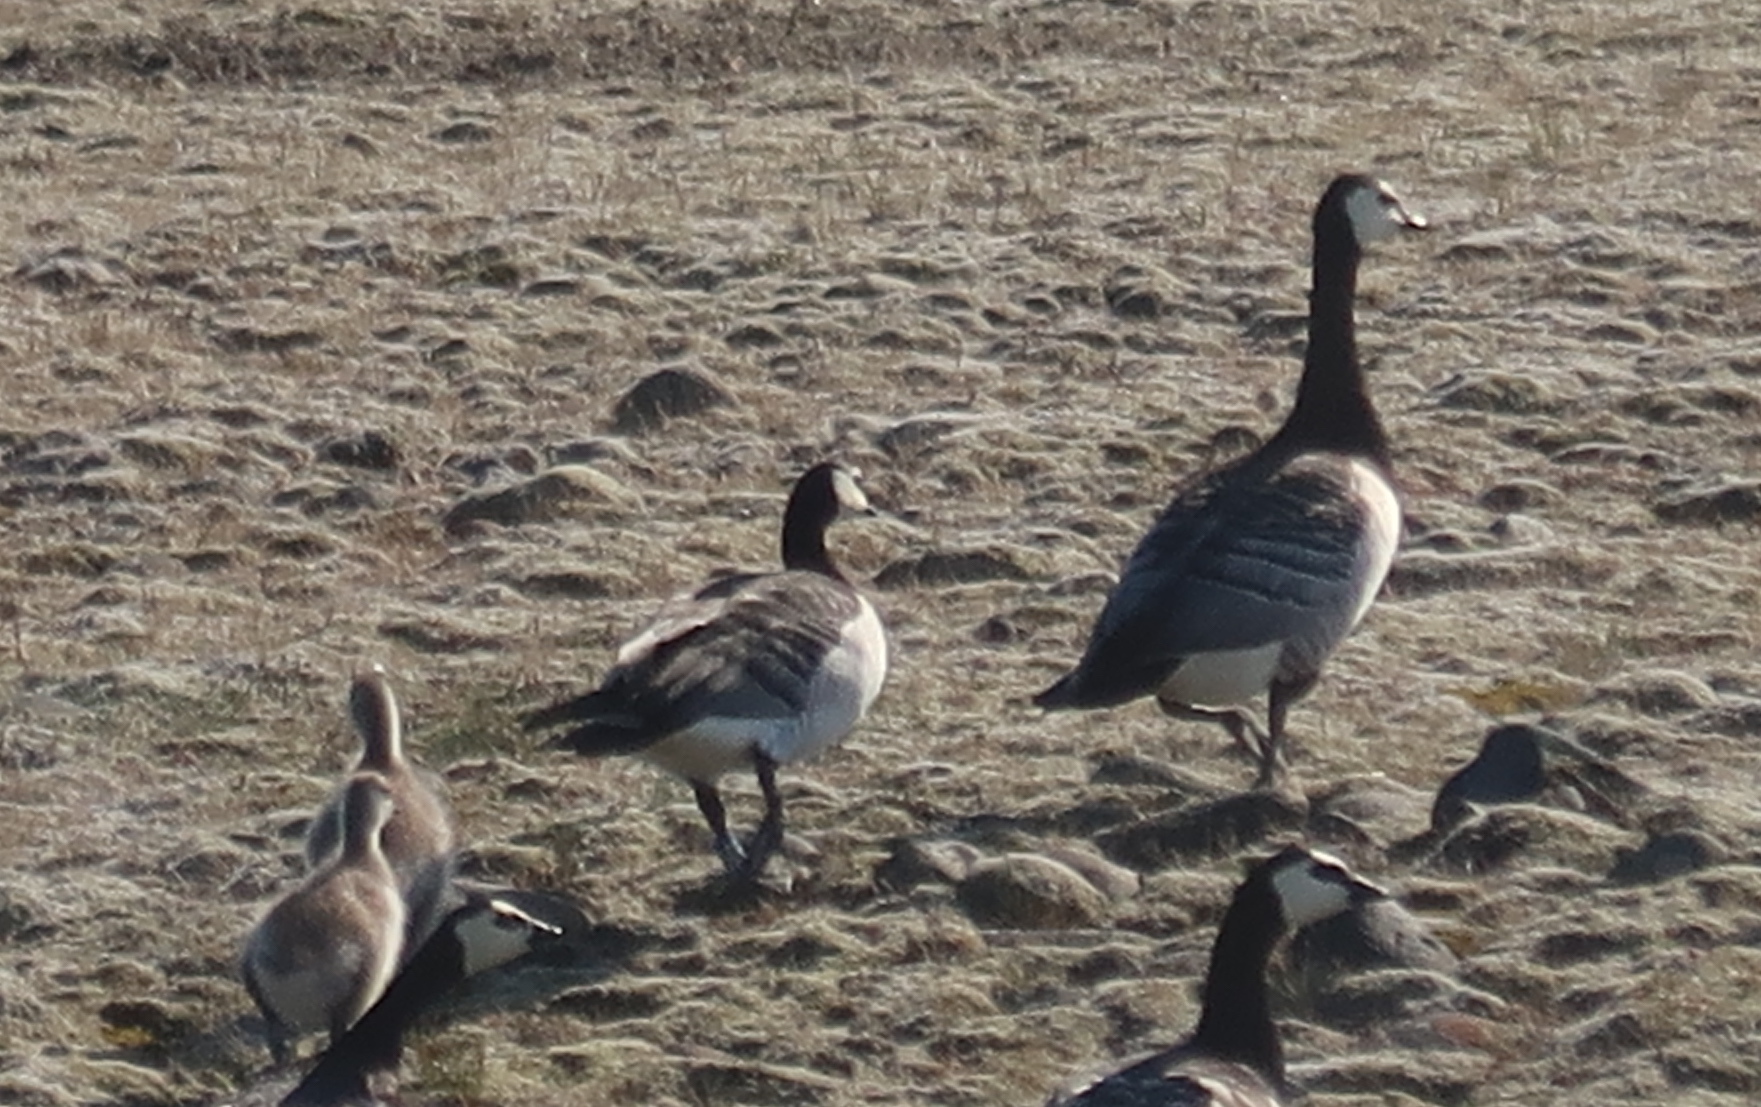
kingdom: Animalia
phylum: Chordata
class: Aves
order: Anseriformes
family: Anatidae
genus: Branta
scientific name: Branta leucopsis
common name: Barnacle goose
